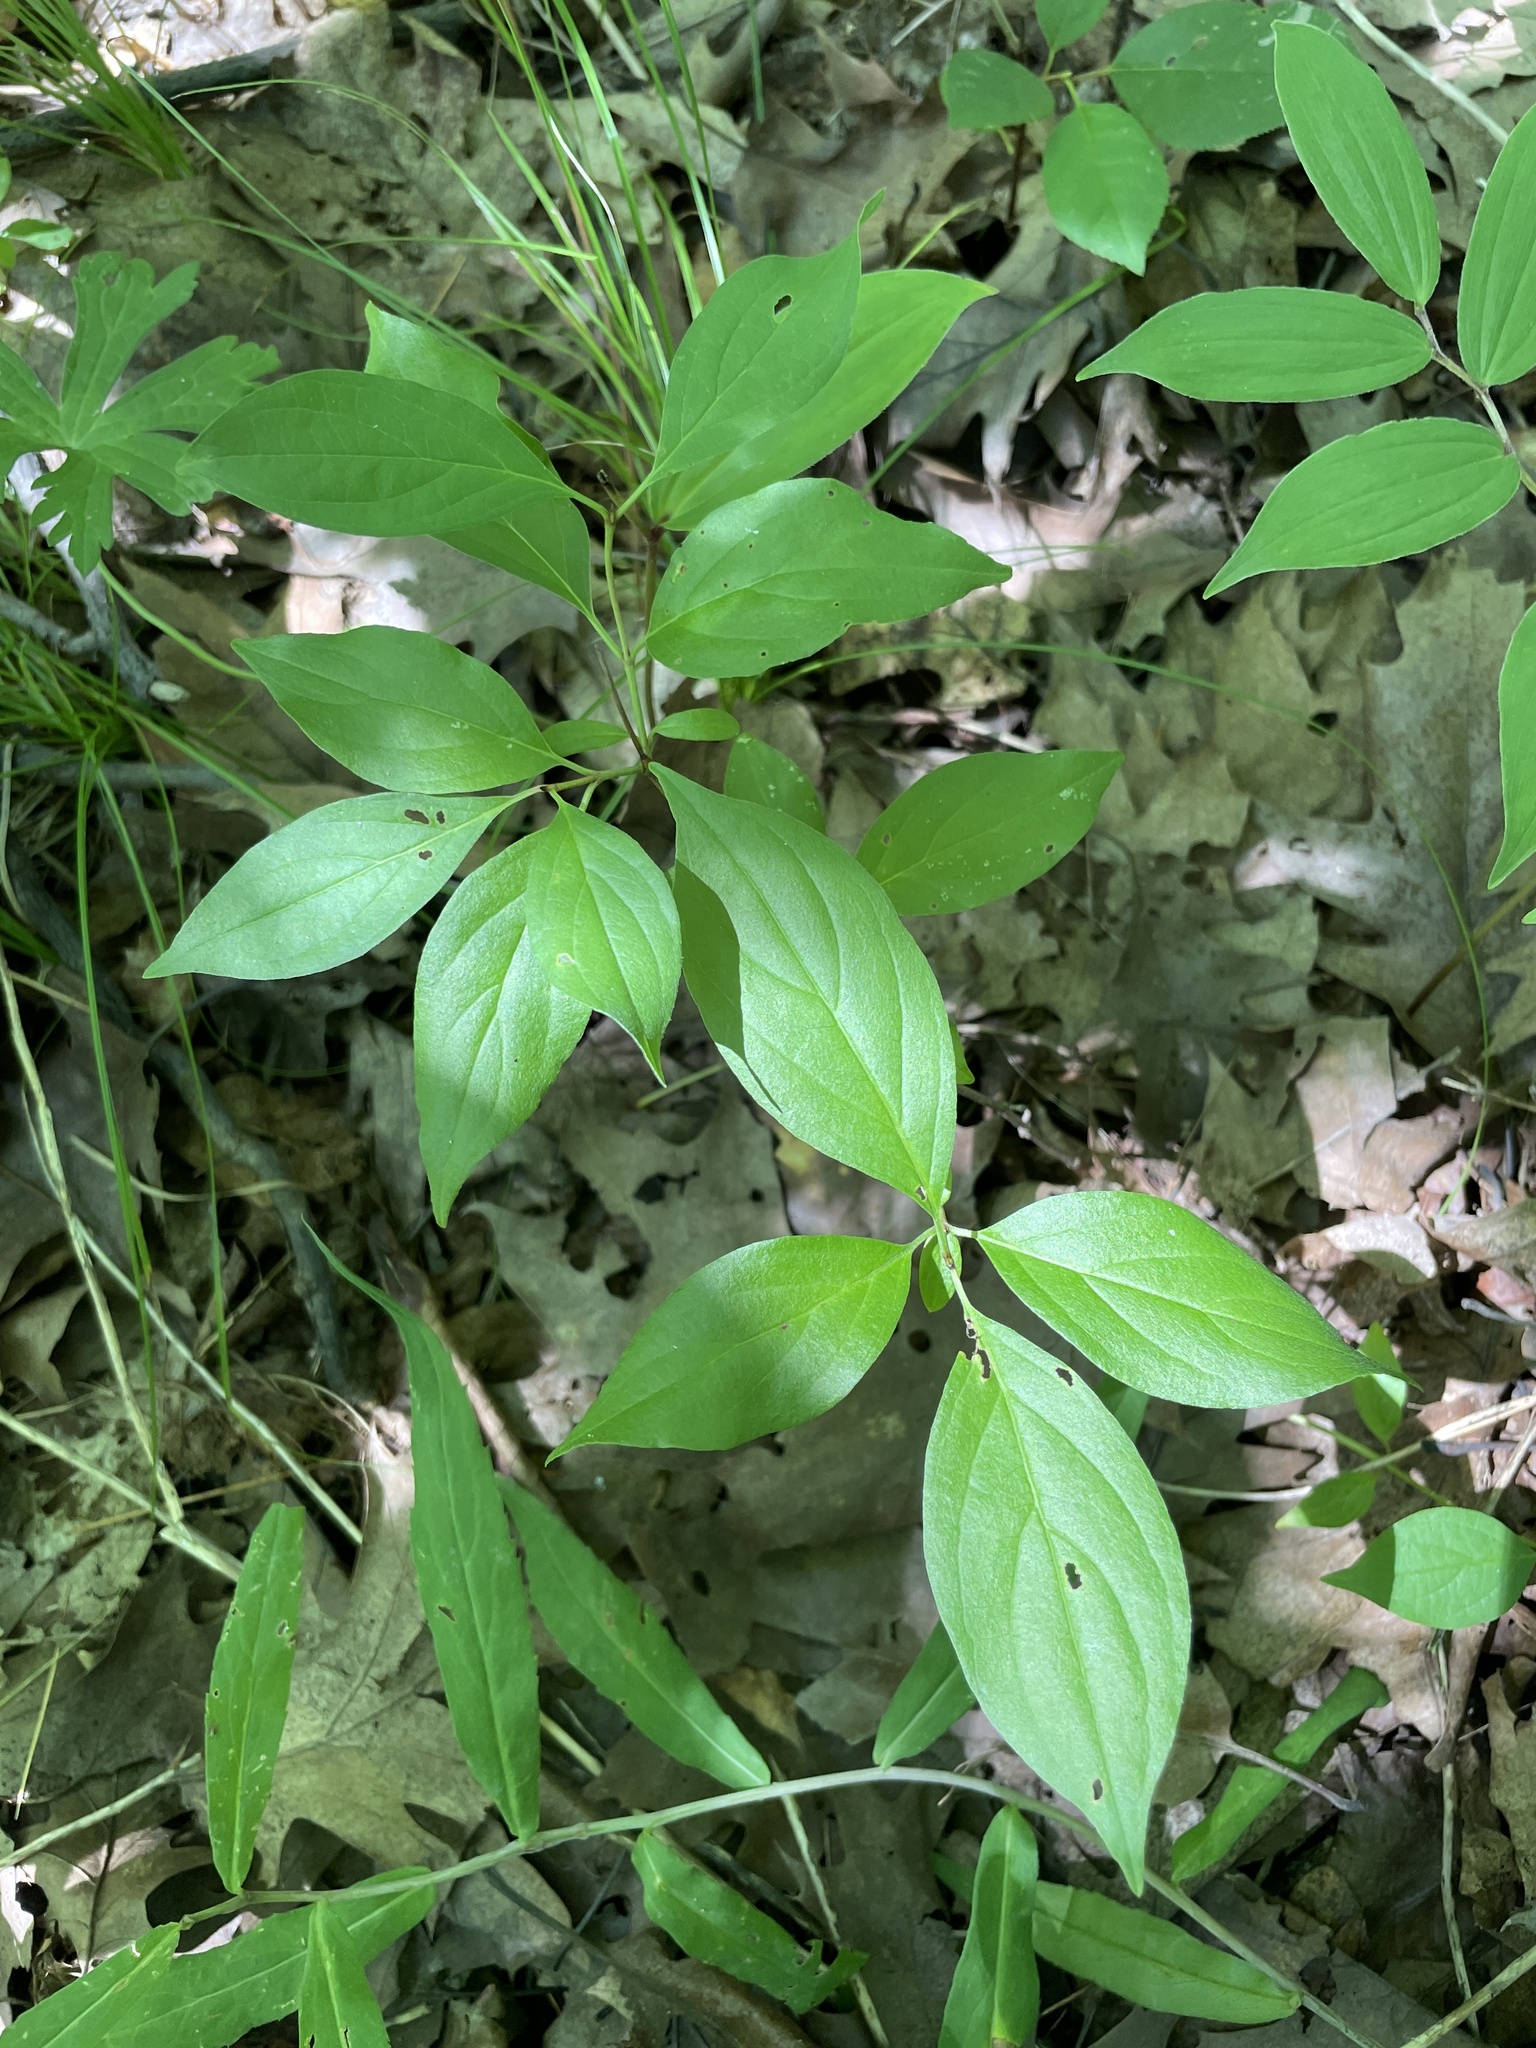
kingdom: Plantae
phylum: Tracheophyta
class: Magnoliopsida
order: Cornales
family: Cornaceae
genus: Cornus
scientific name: Cornus racemosa
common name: Panicled dogwood
